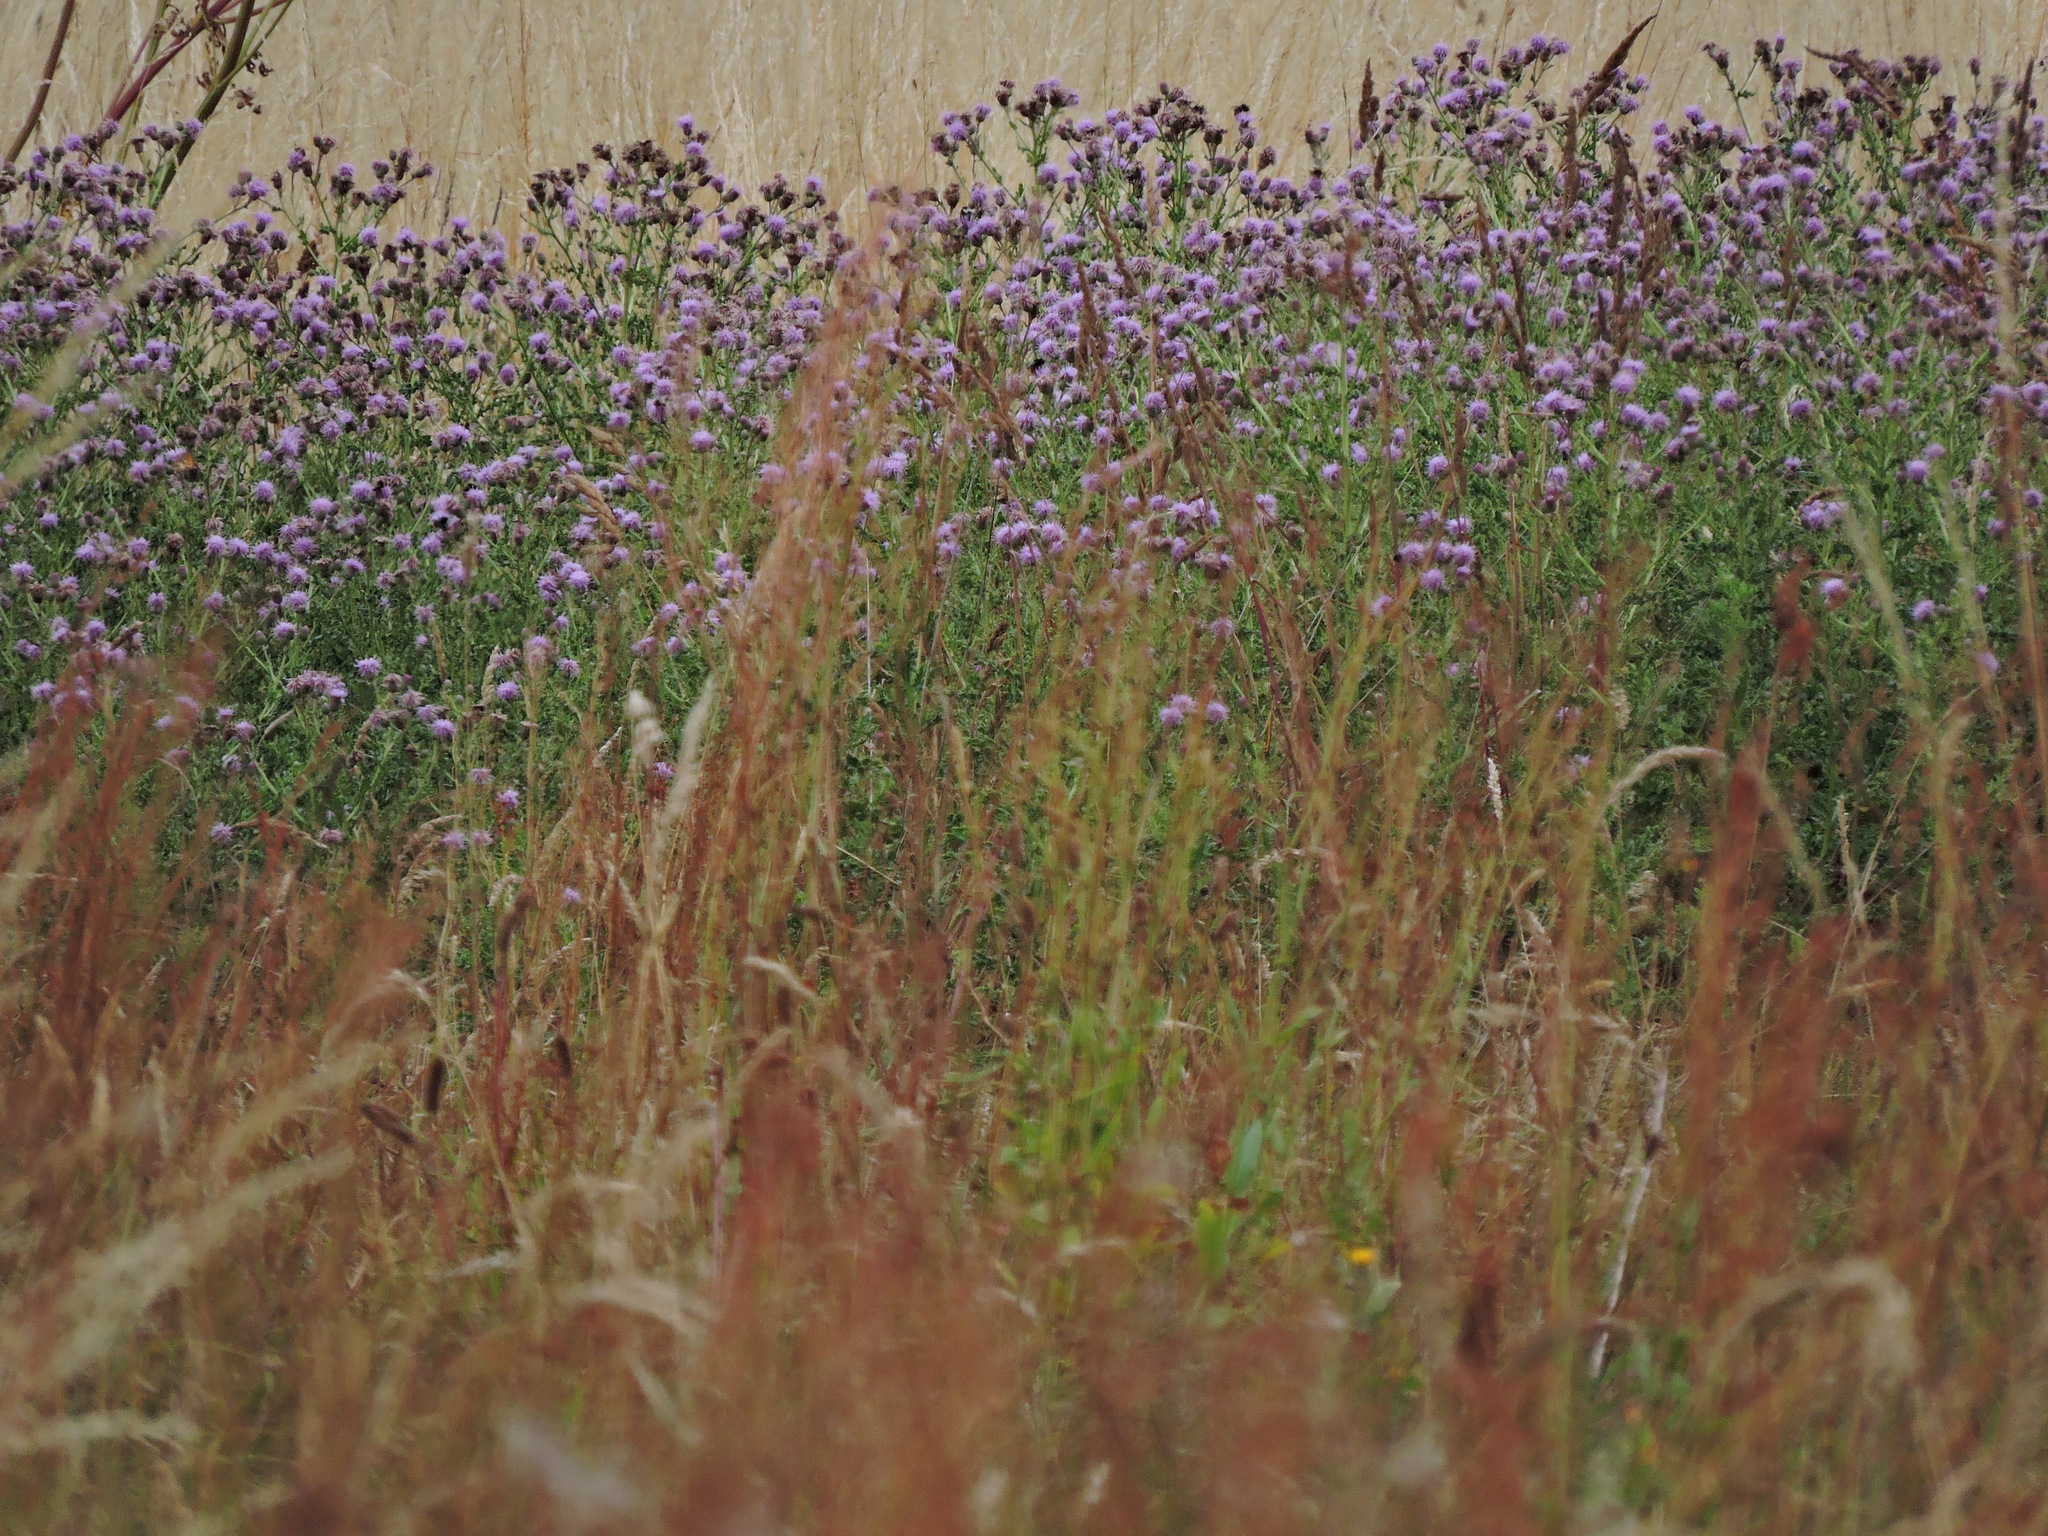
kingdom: Plantae
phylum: Tracheophyta
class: Magnoliopsida
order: Asterales
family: Asteraceae
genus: Cirsium
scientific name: Cirsium arvense
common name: Creeping thistle
